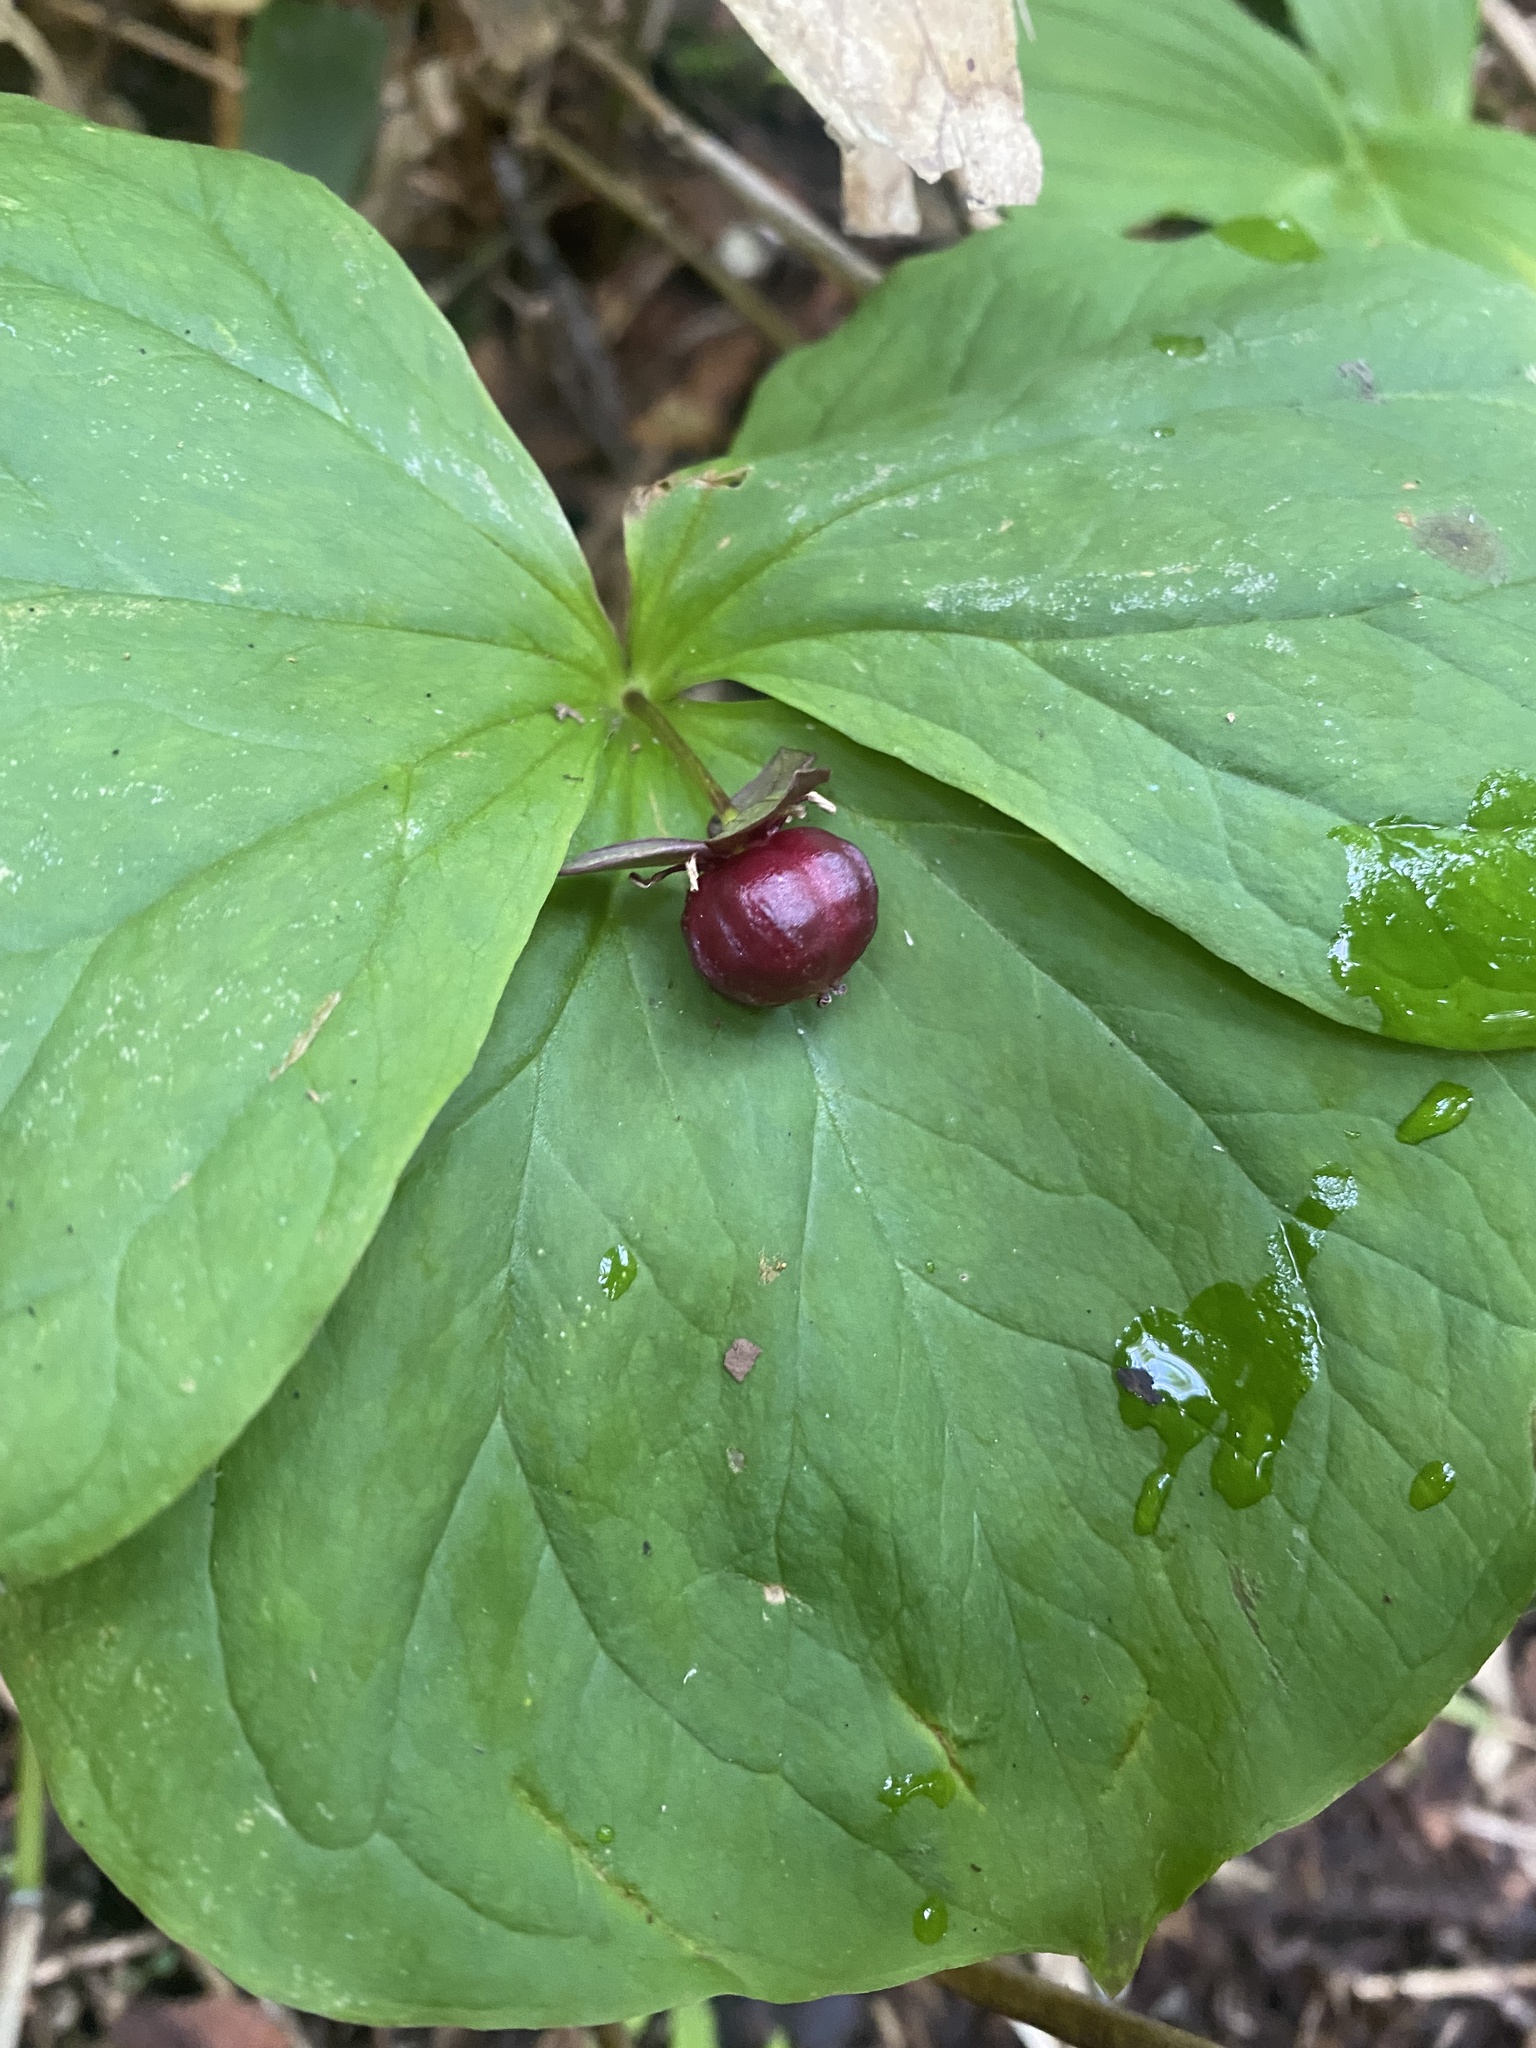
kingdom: Plantae
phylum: Tracheophyta
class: Liliopsida
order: Liliales
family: Melanthiaceae
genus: Trillium
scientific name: Trillium apetalon
